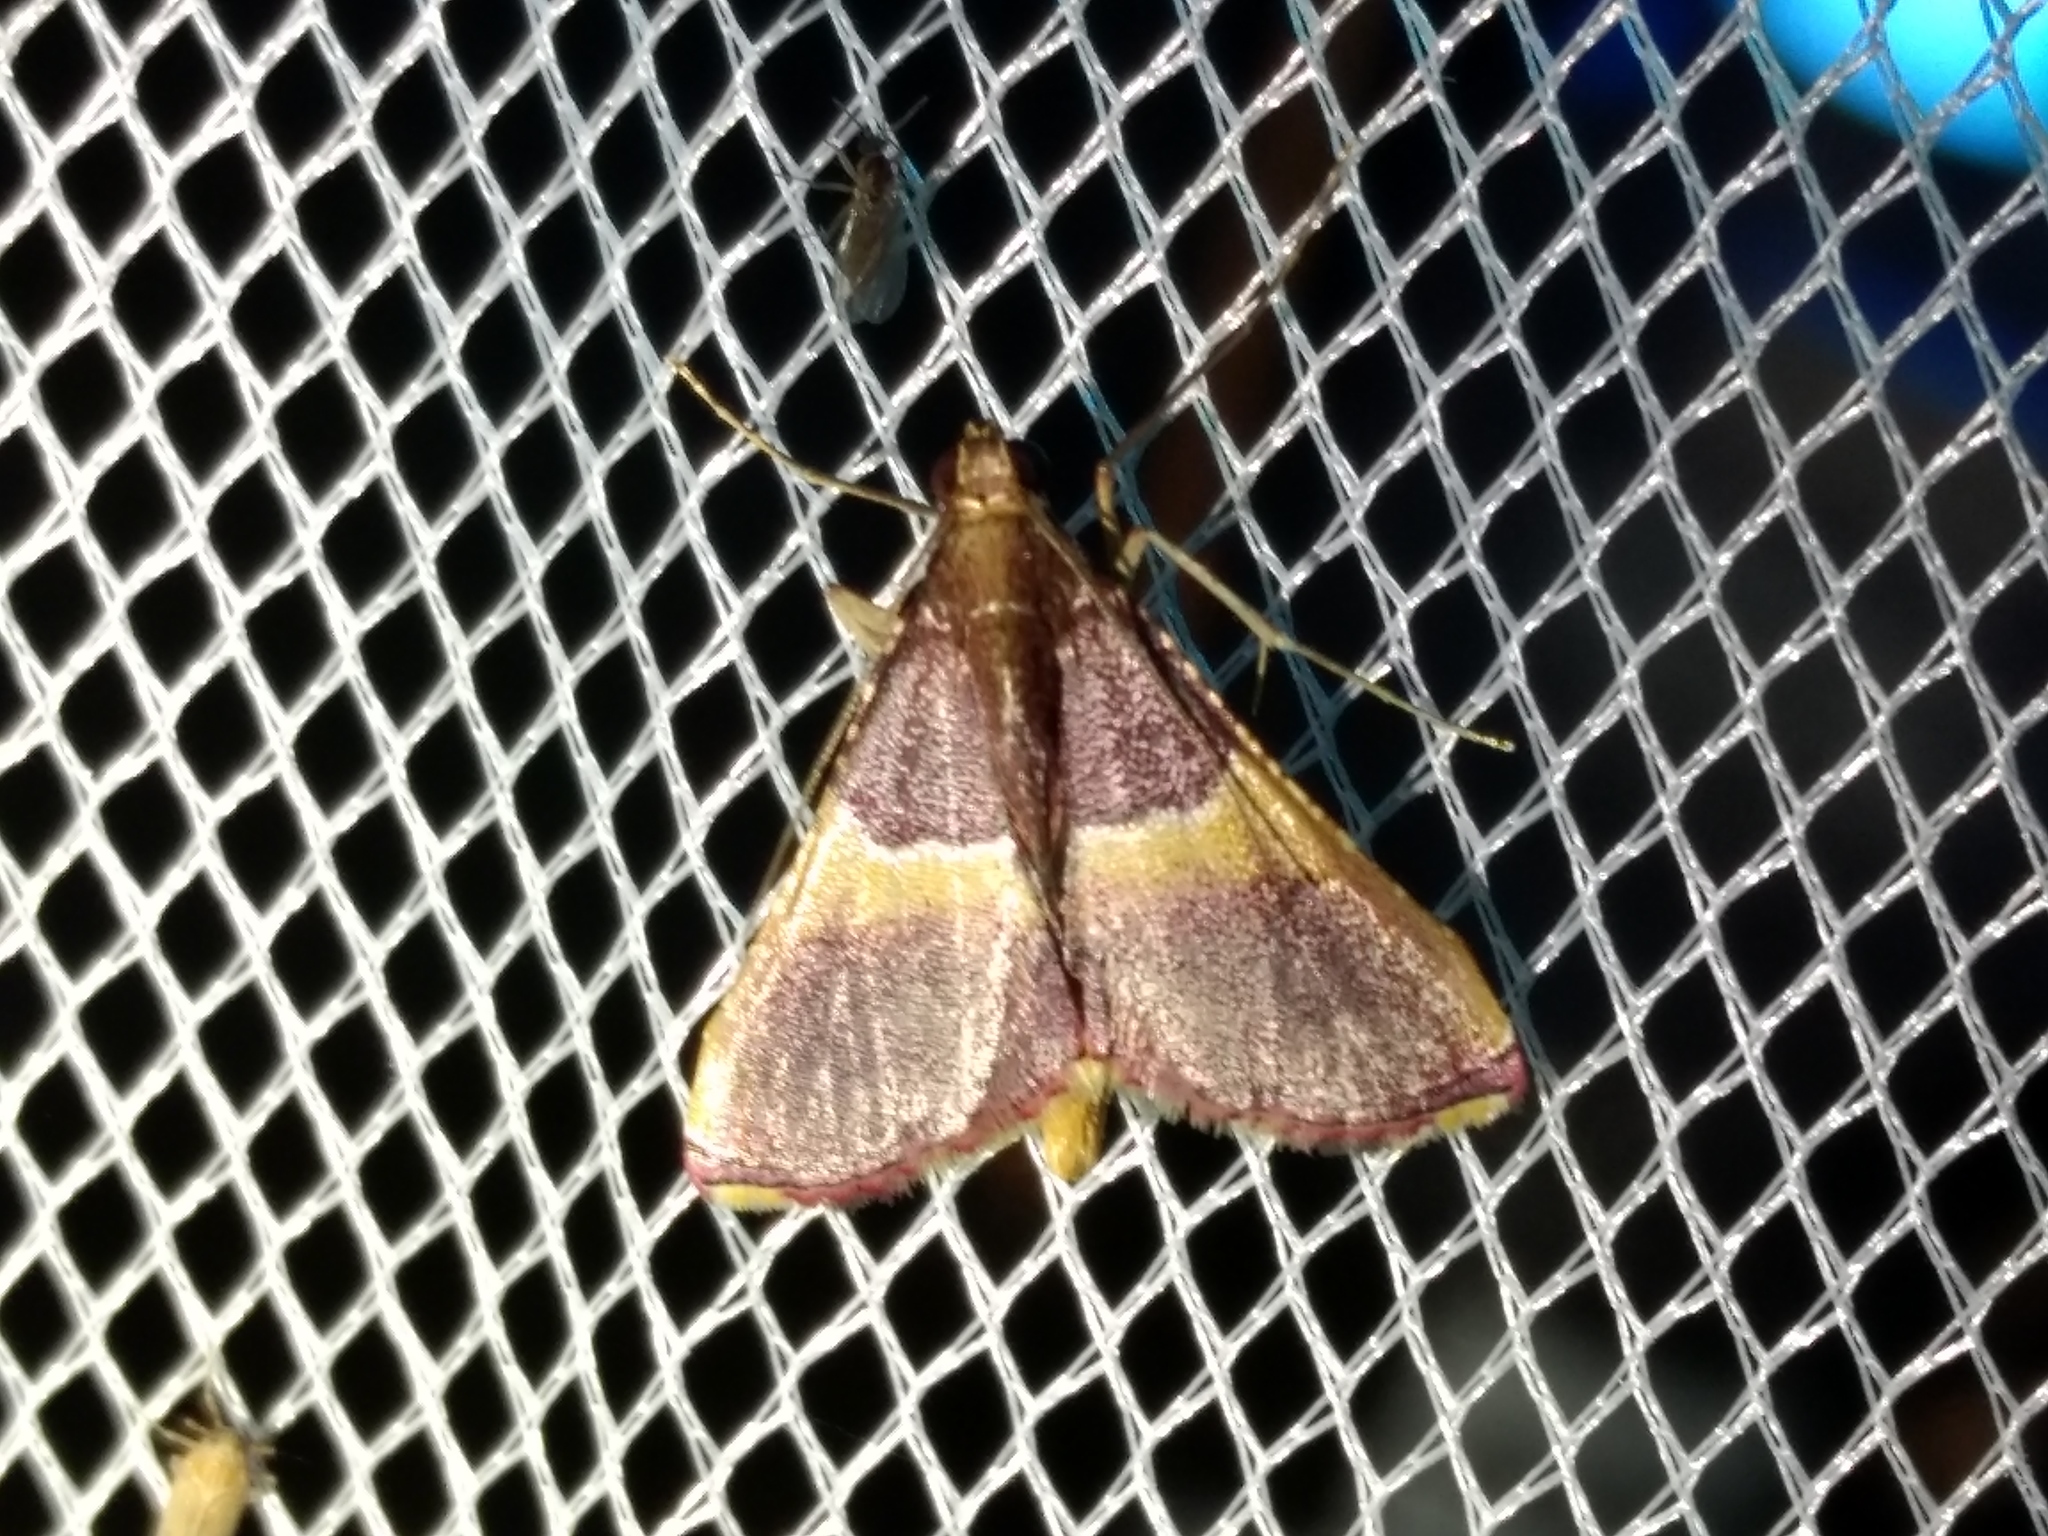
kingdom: Animalia
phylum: Arthropoda
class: Insecta
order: Lepidoptera
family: Pyralidae
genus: Endotricha
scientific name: Endotricha mesenterialis
